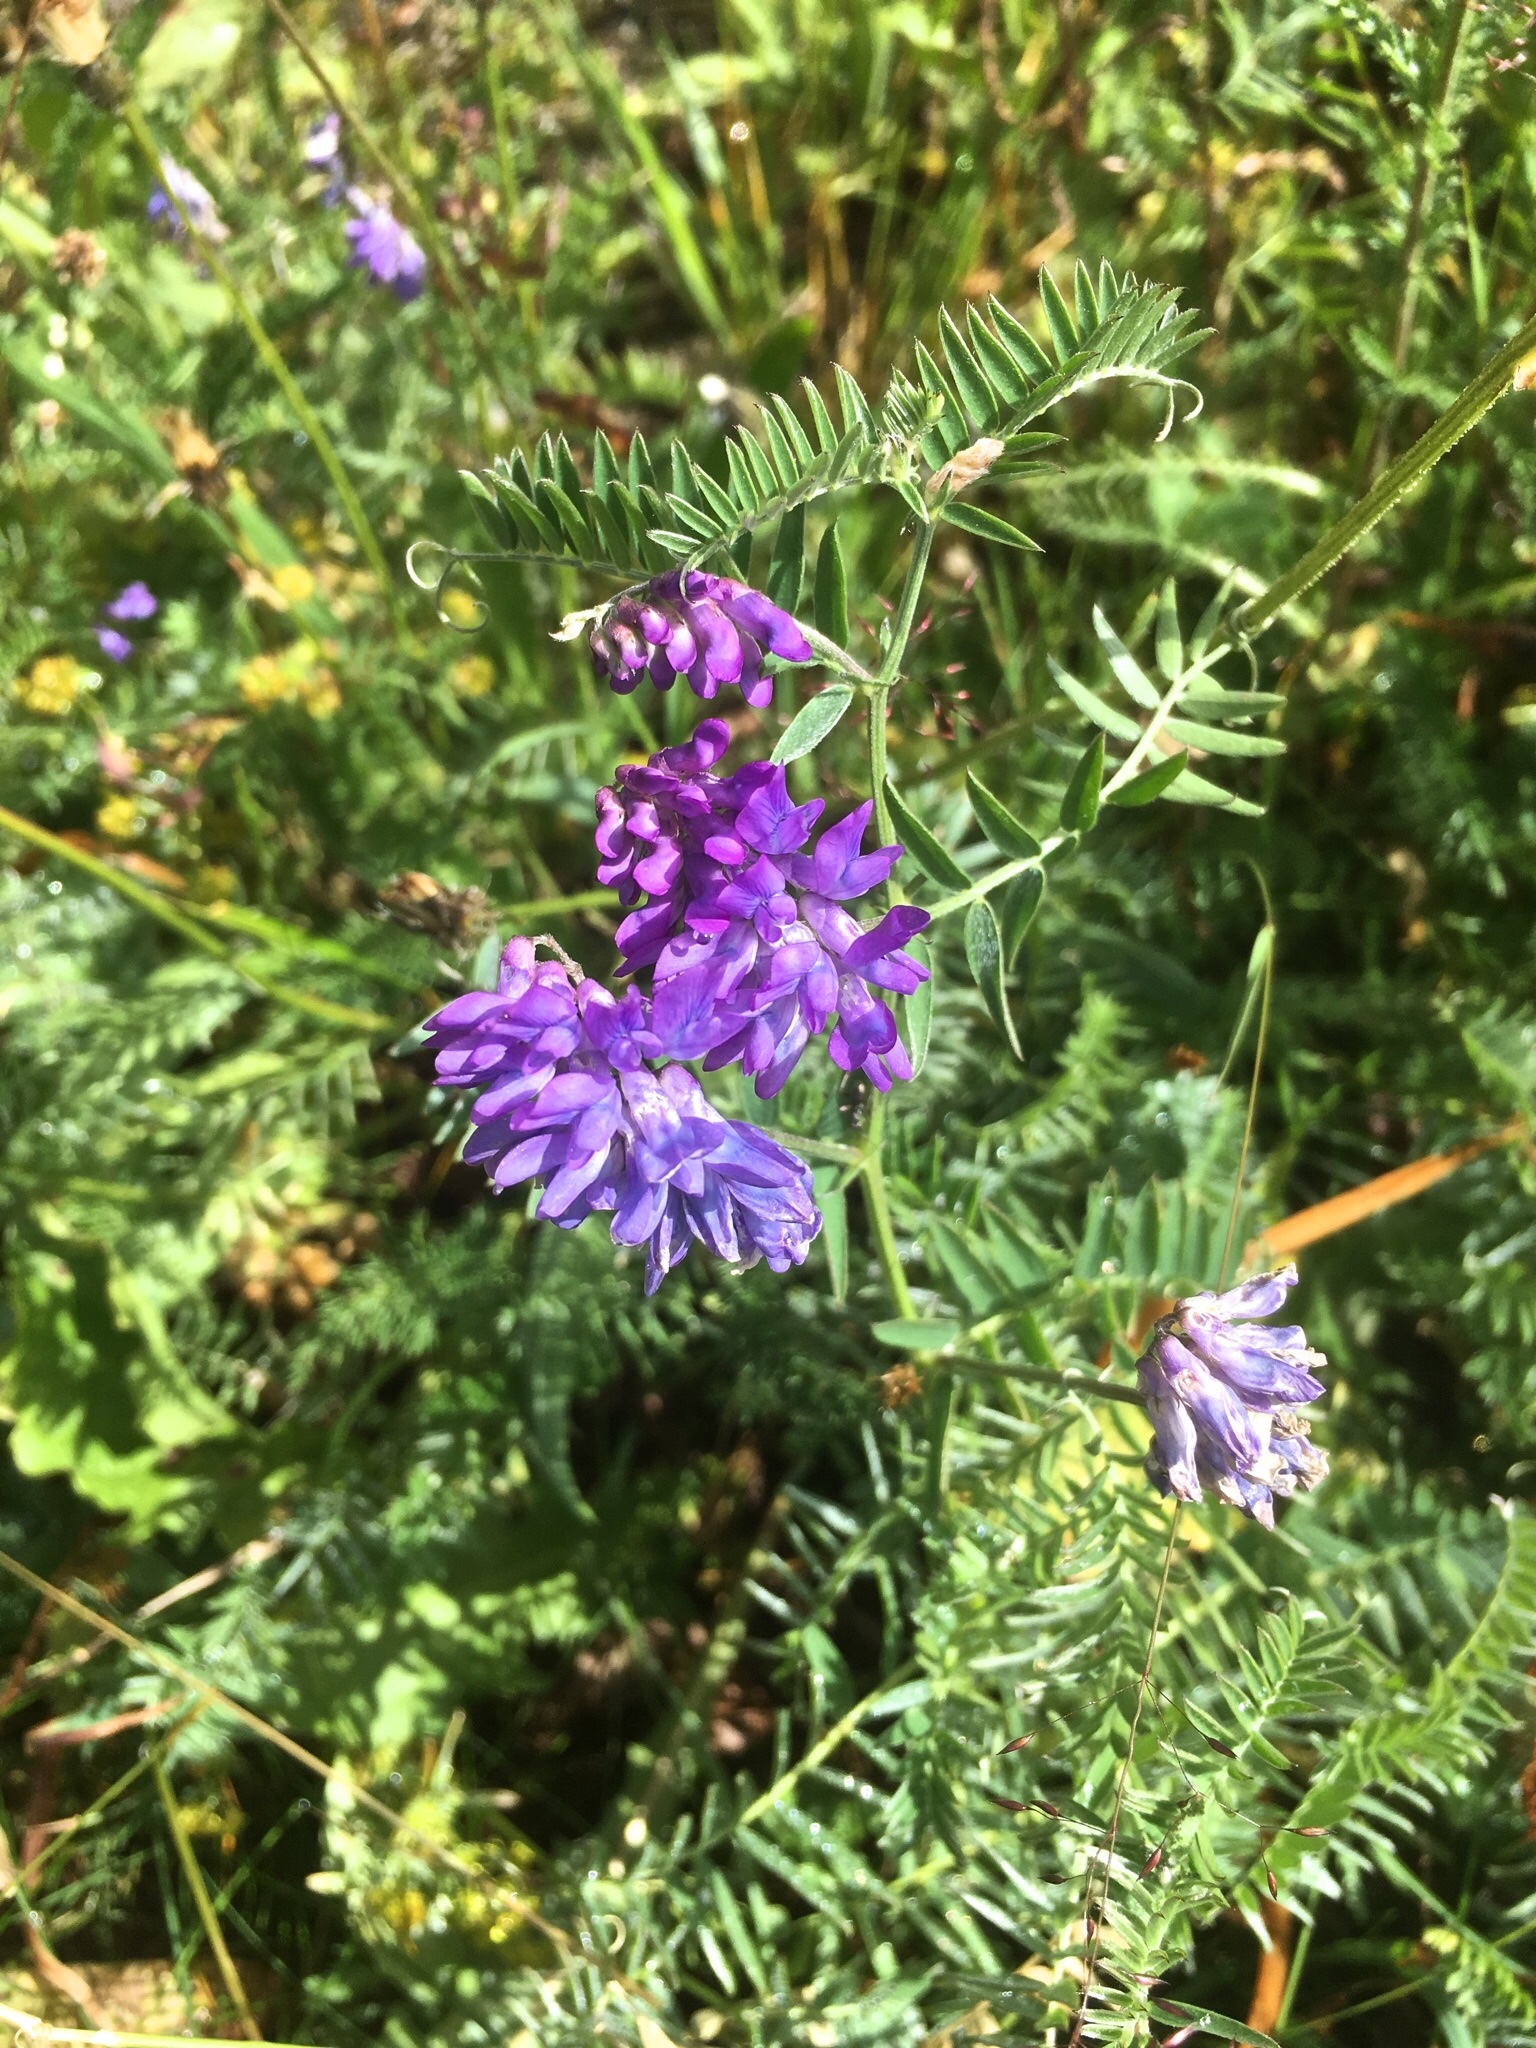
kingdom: Plantae
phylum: Tracheophyta
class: Magnoliopsida
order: Fabales
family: Fabaceae
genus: Vicia
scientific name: Vicia cracca
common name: Bird vetch
